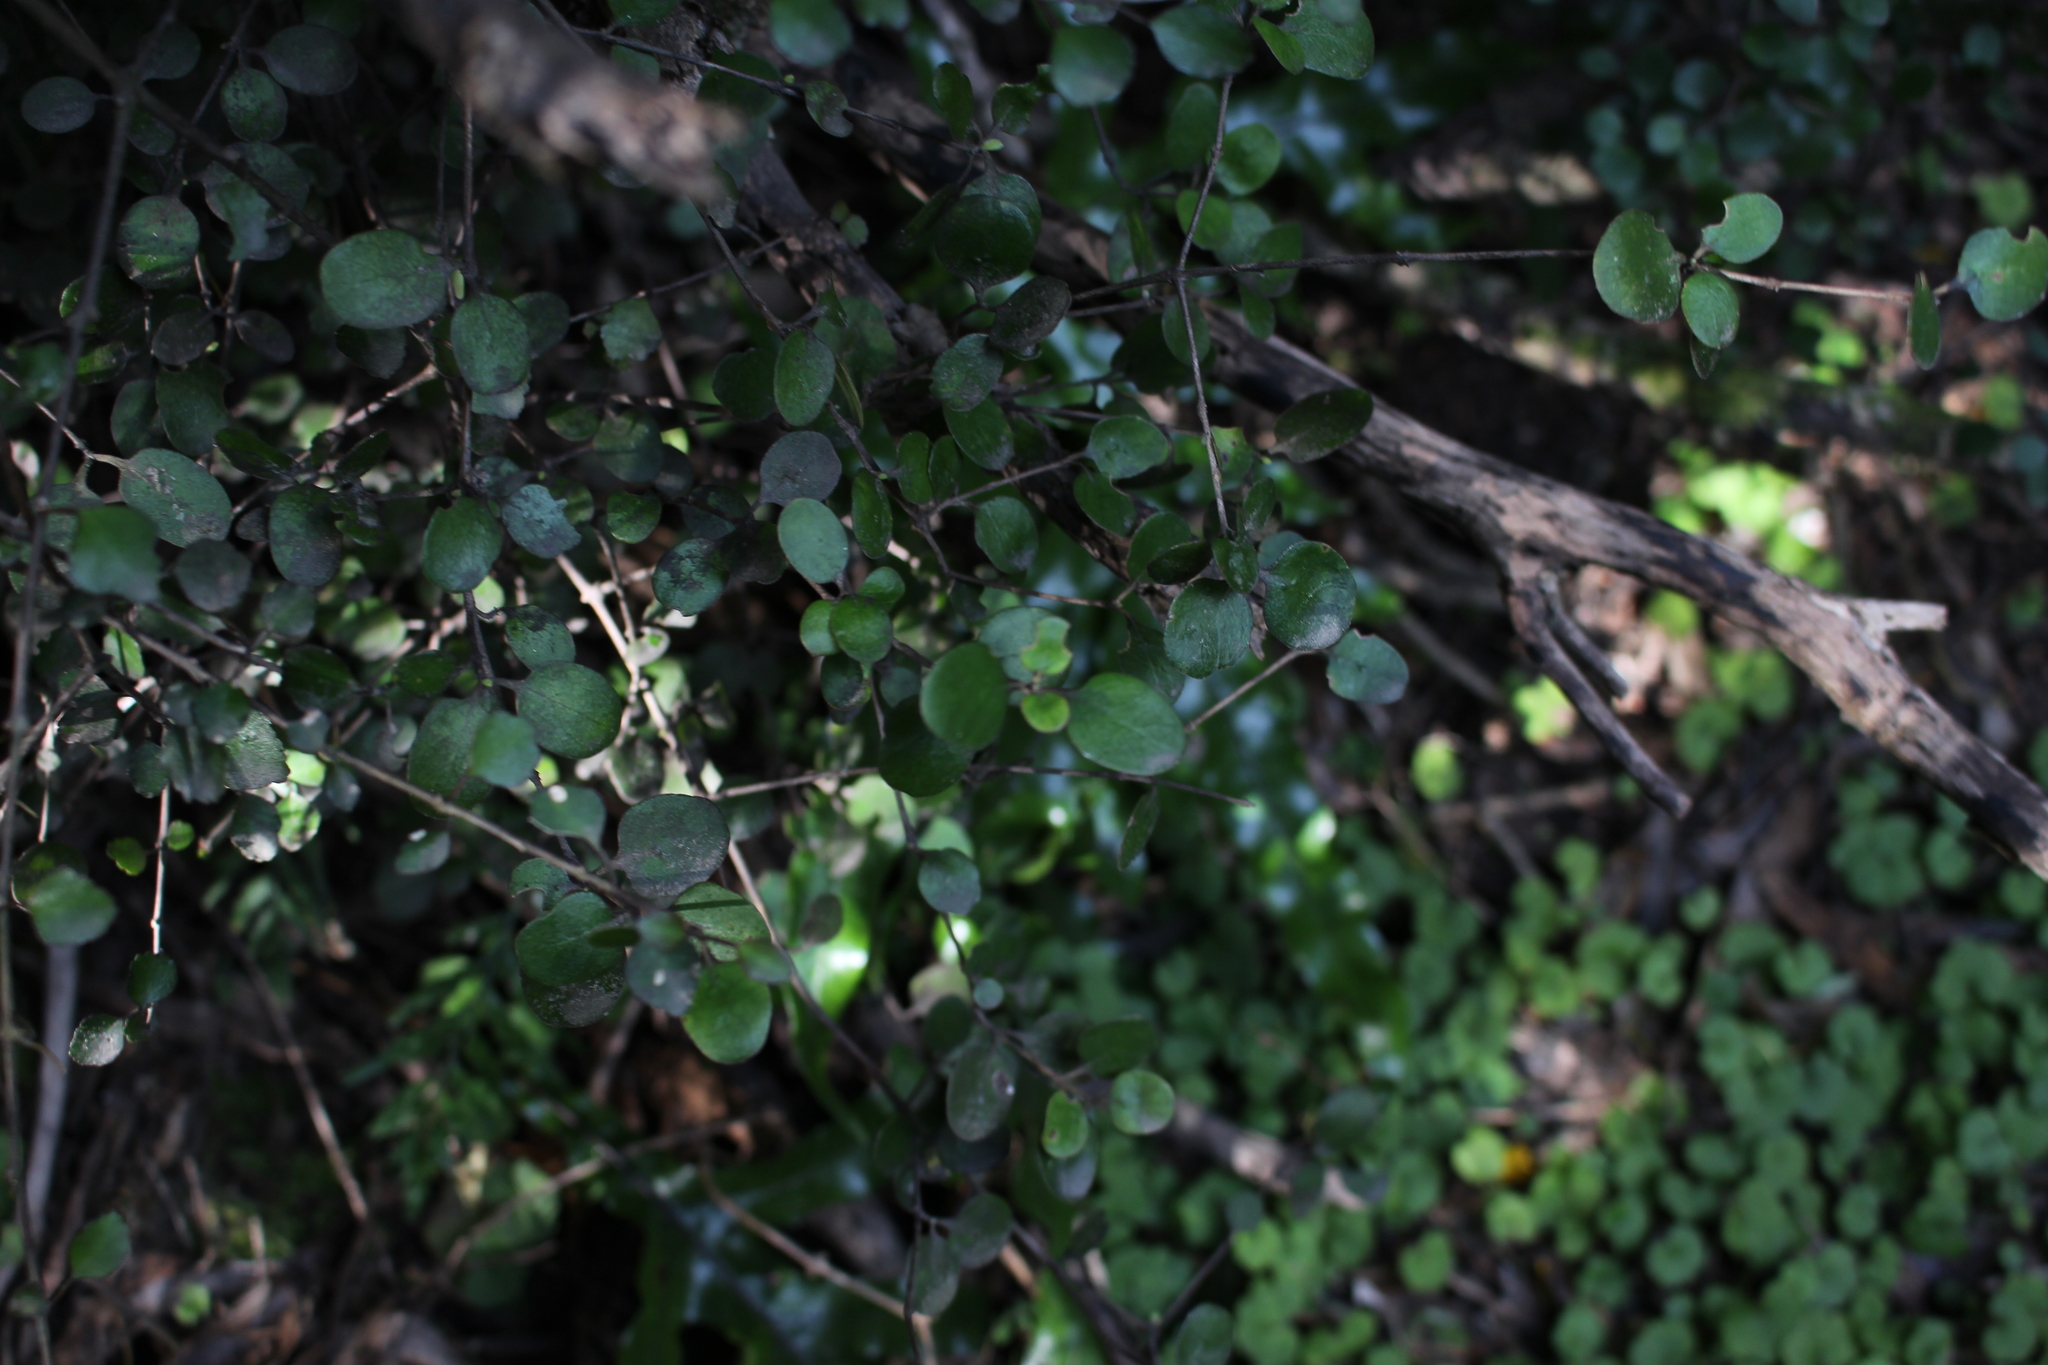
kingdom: Plantae
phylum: Tracheophyta
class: Magnoliopsida
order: Gentianales
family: Rubiaceae
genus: Coprosma
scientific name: Coprosma crassifolia
